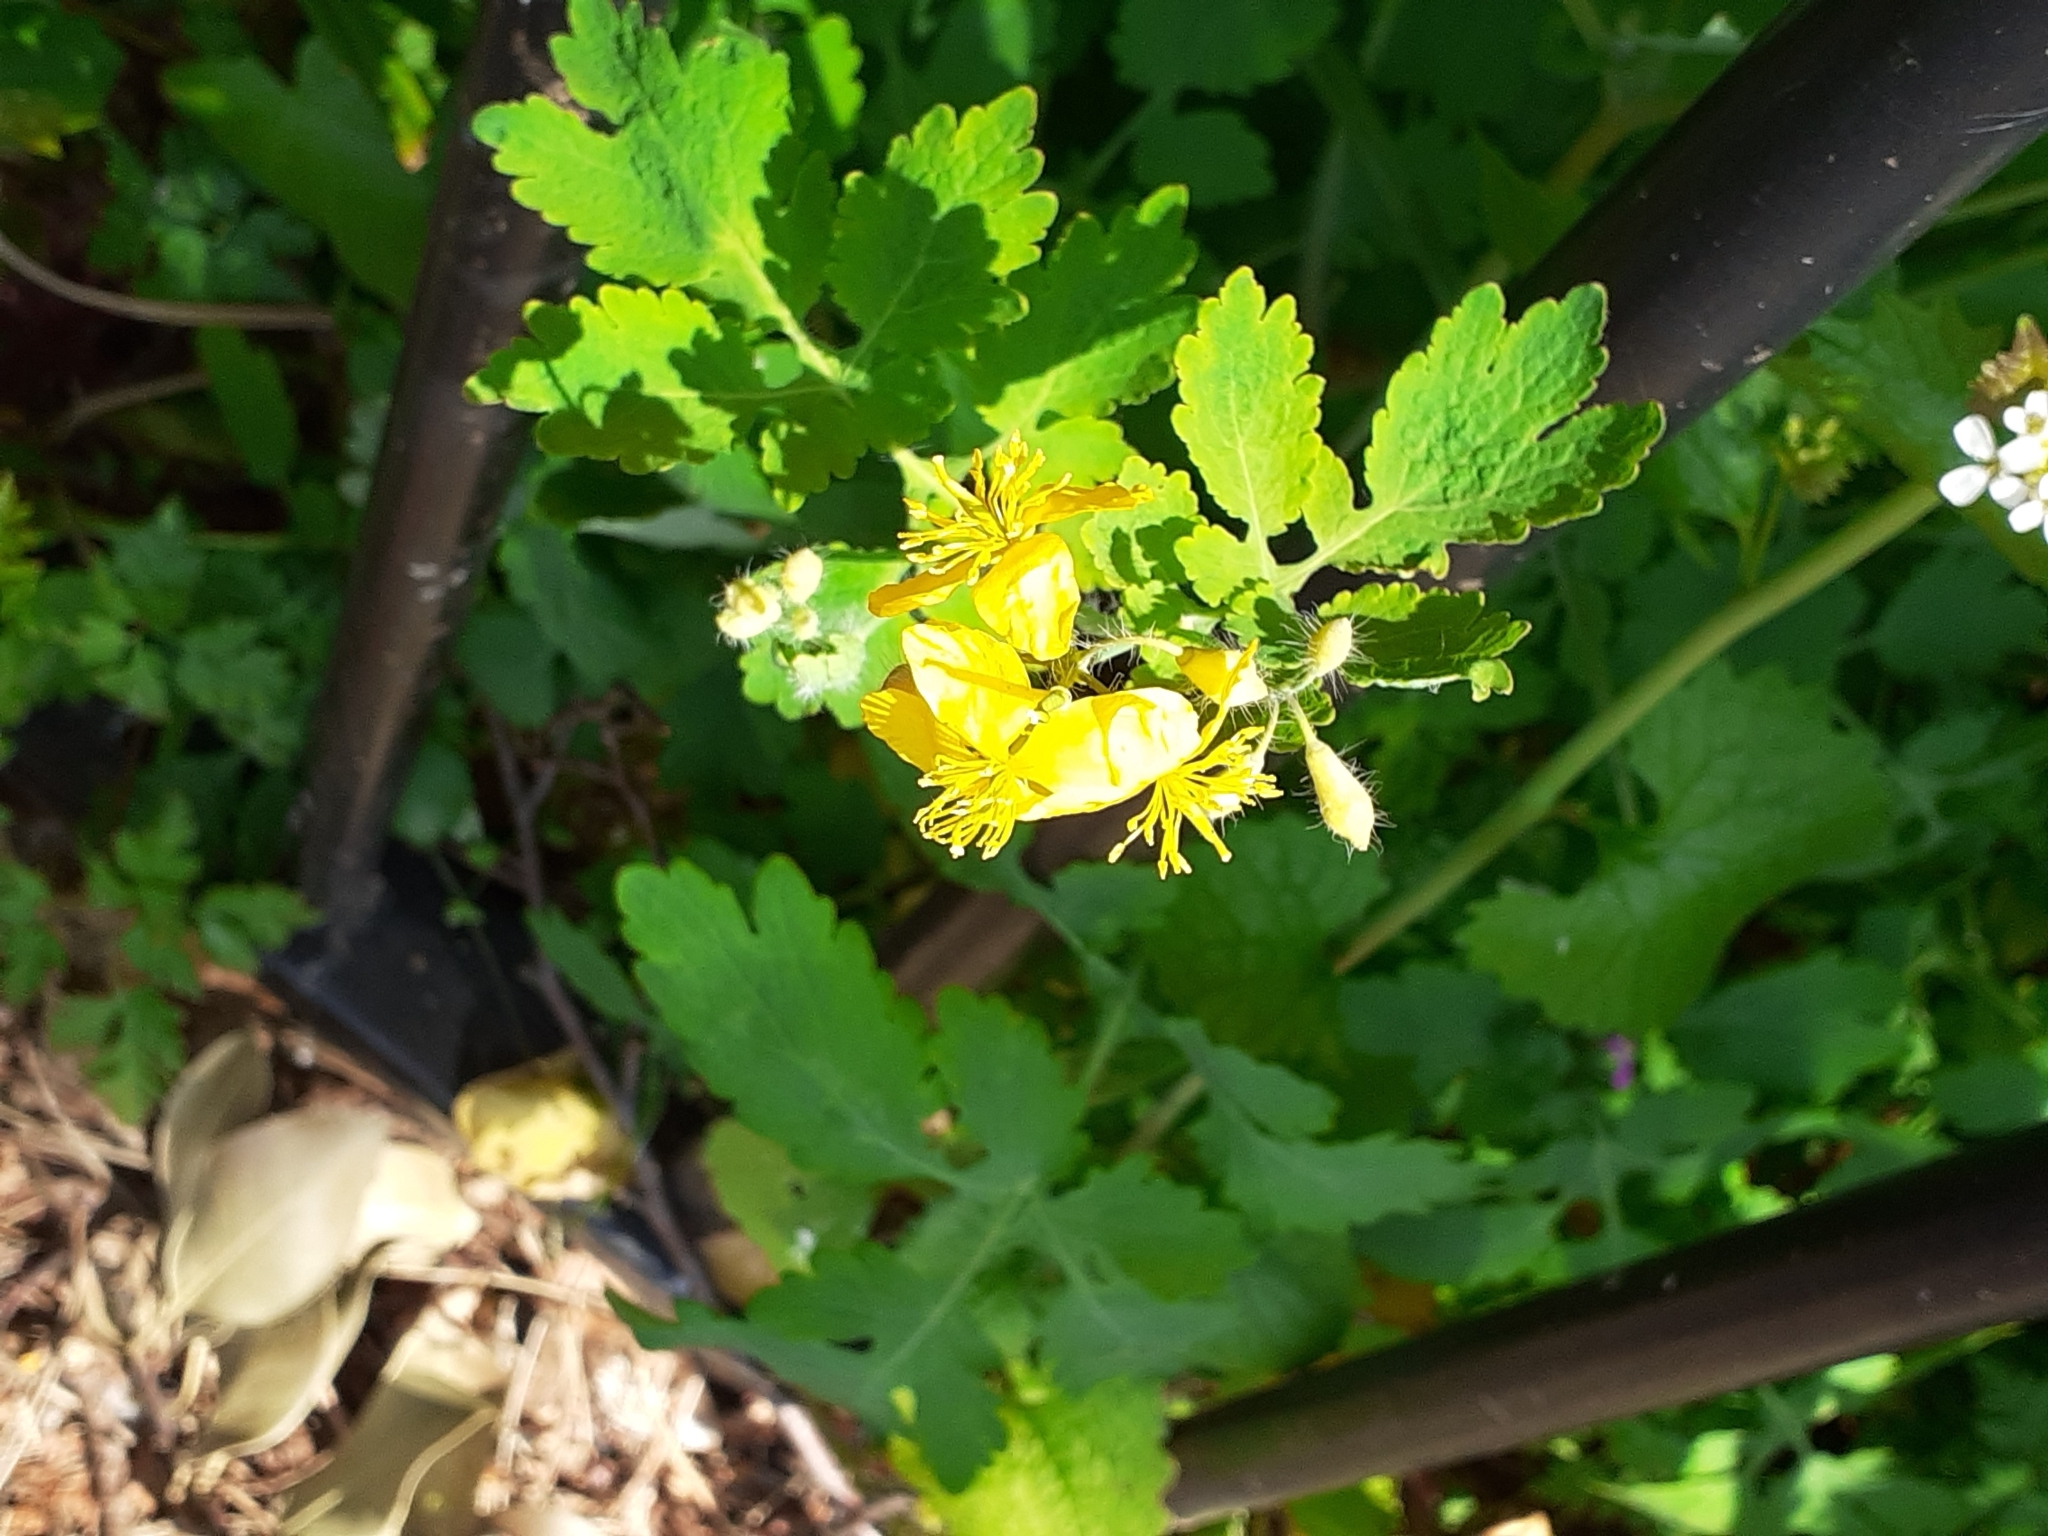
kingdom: Plantae
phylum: Tracheophyta
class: Magnoliopsida
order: Ranunculales
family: Papaveraceae
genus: Chelidonium
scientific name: Chelidonium majus
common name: Greater celandine
